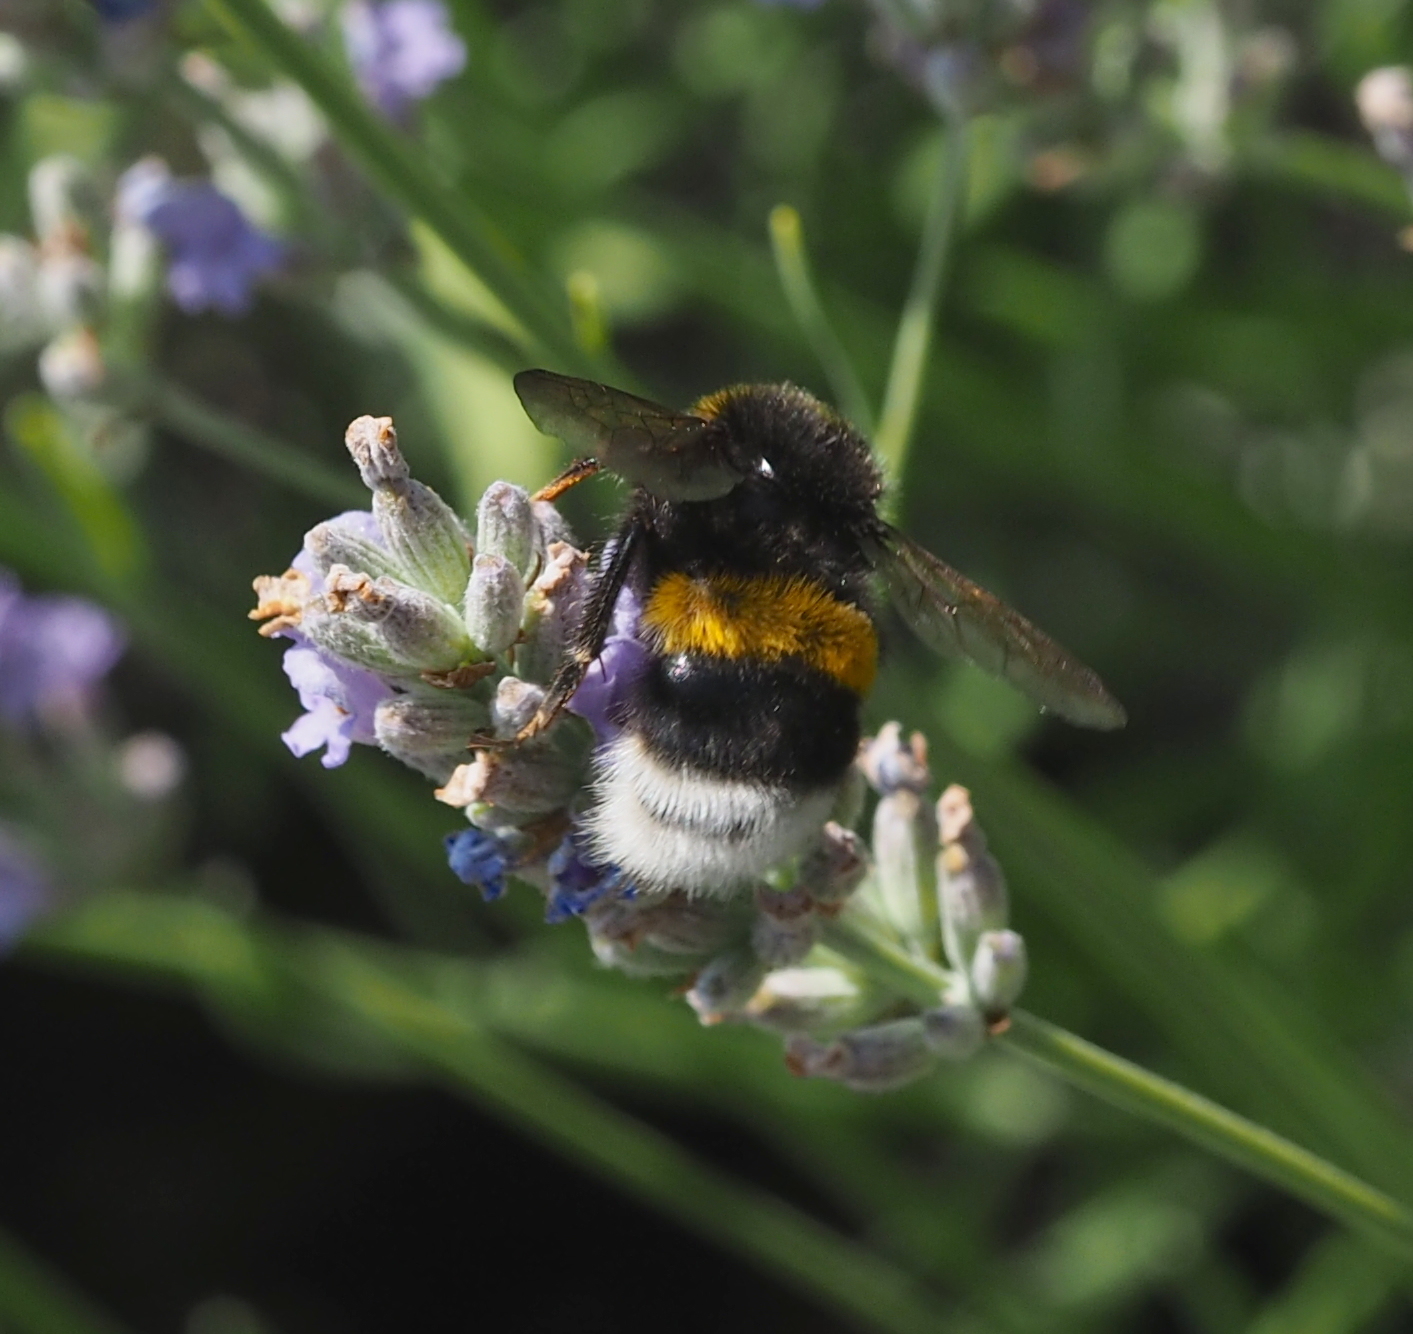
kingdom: Animalia
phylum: Arthropoda
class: Insecta
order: Hymenoptera
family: Apidae
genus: Bombus
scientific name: Bombus terrestris
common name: Buff-tailed bumblebee
